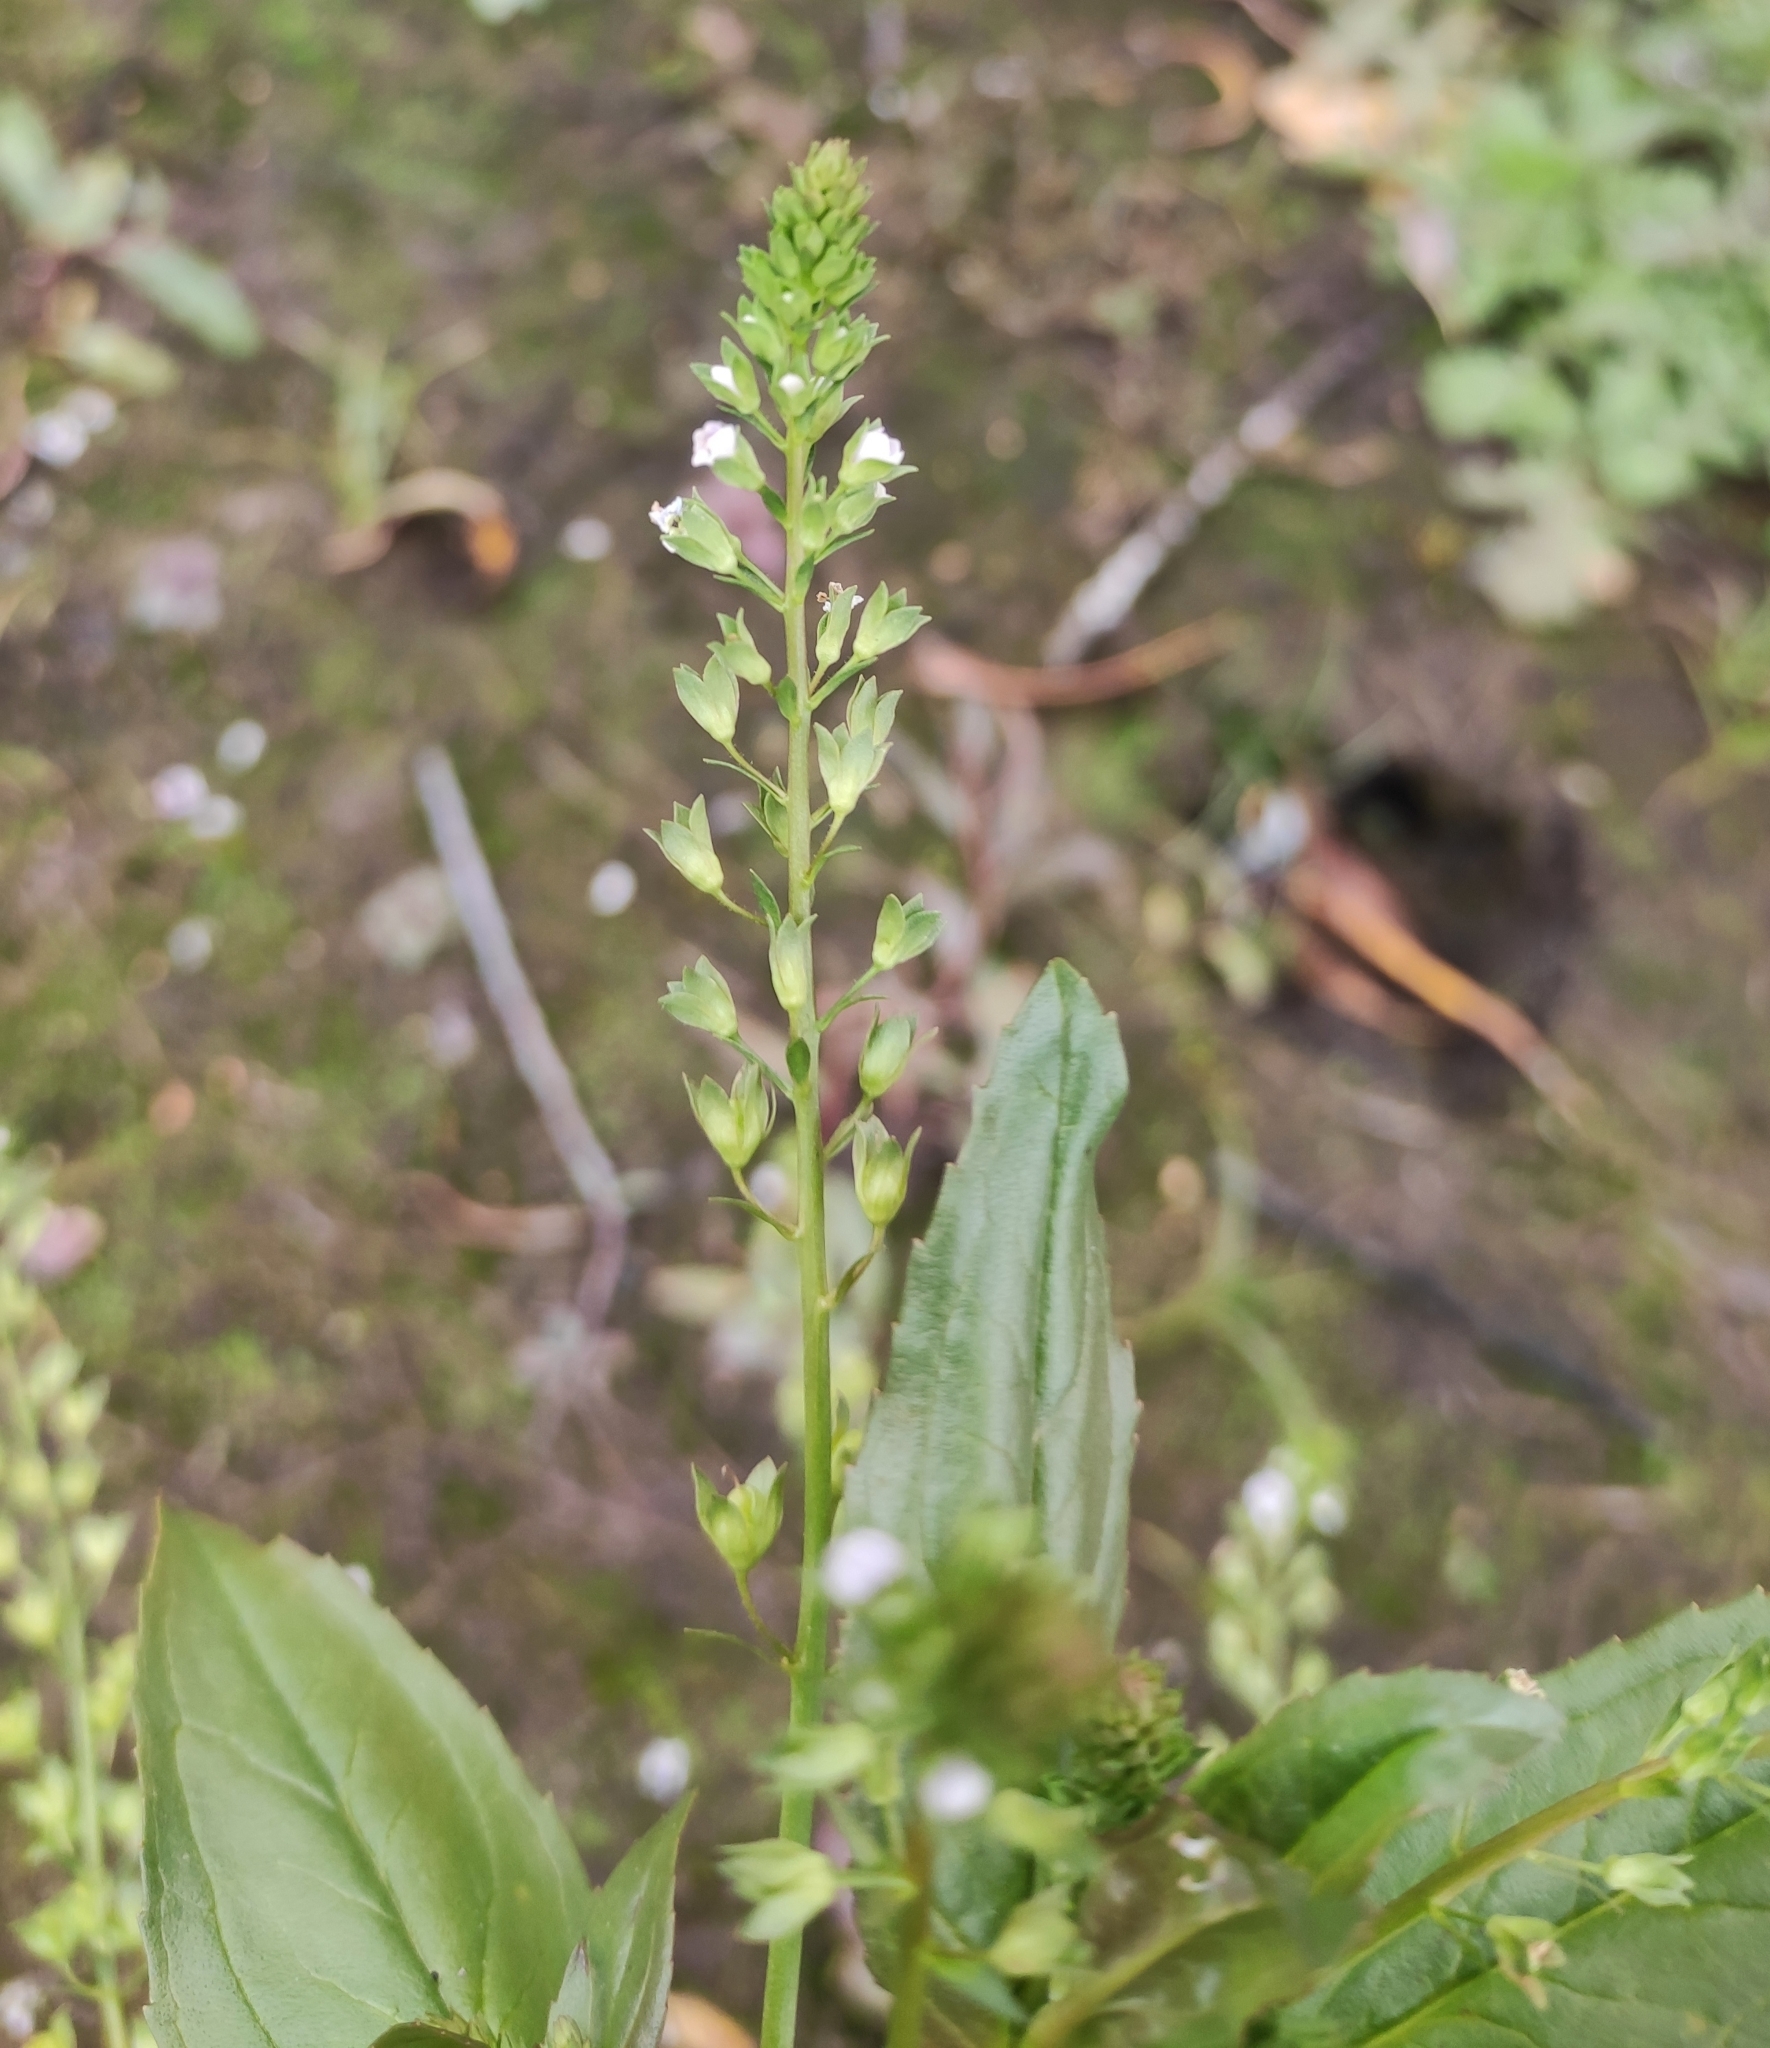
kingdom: Plantae
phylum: Tracheophyta
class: Magnoliopsida
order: Lamiales
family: Plantaginaceae
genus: Veronica
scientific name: Veronica anagallis-aquatica
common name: Water speedwell
